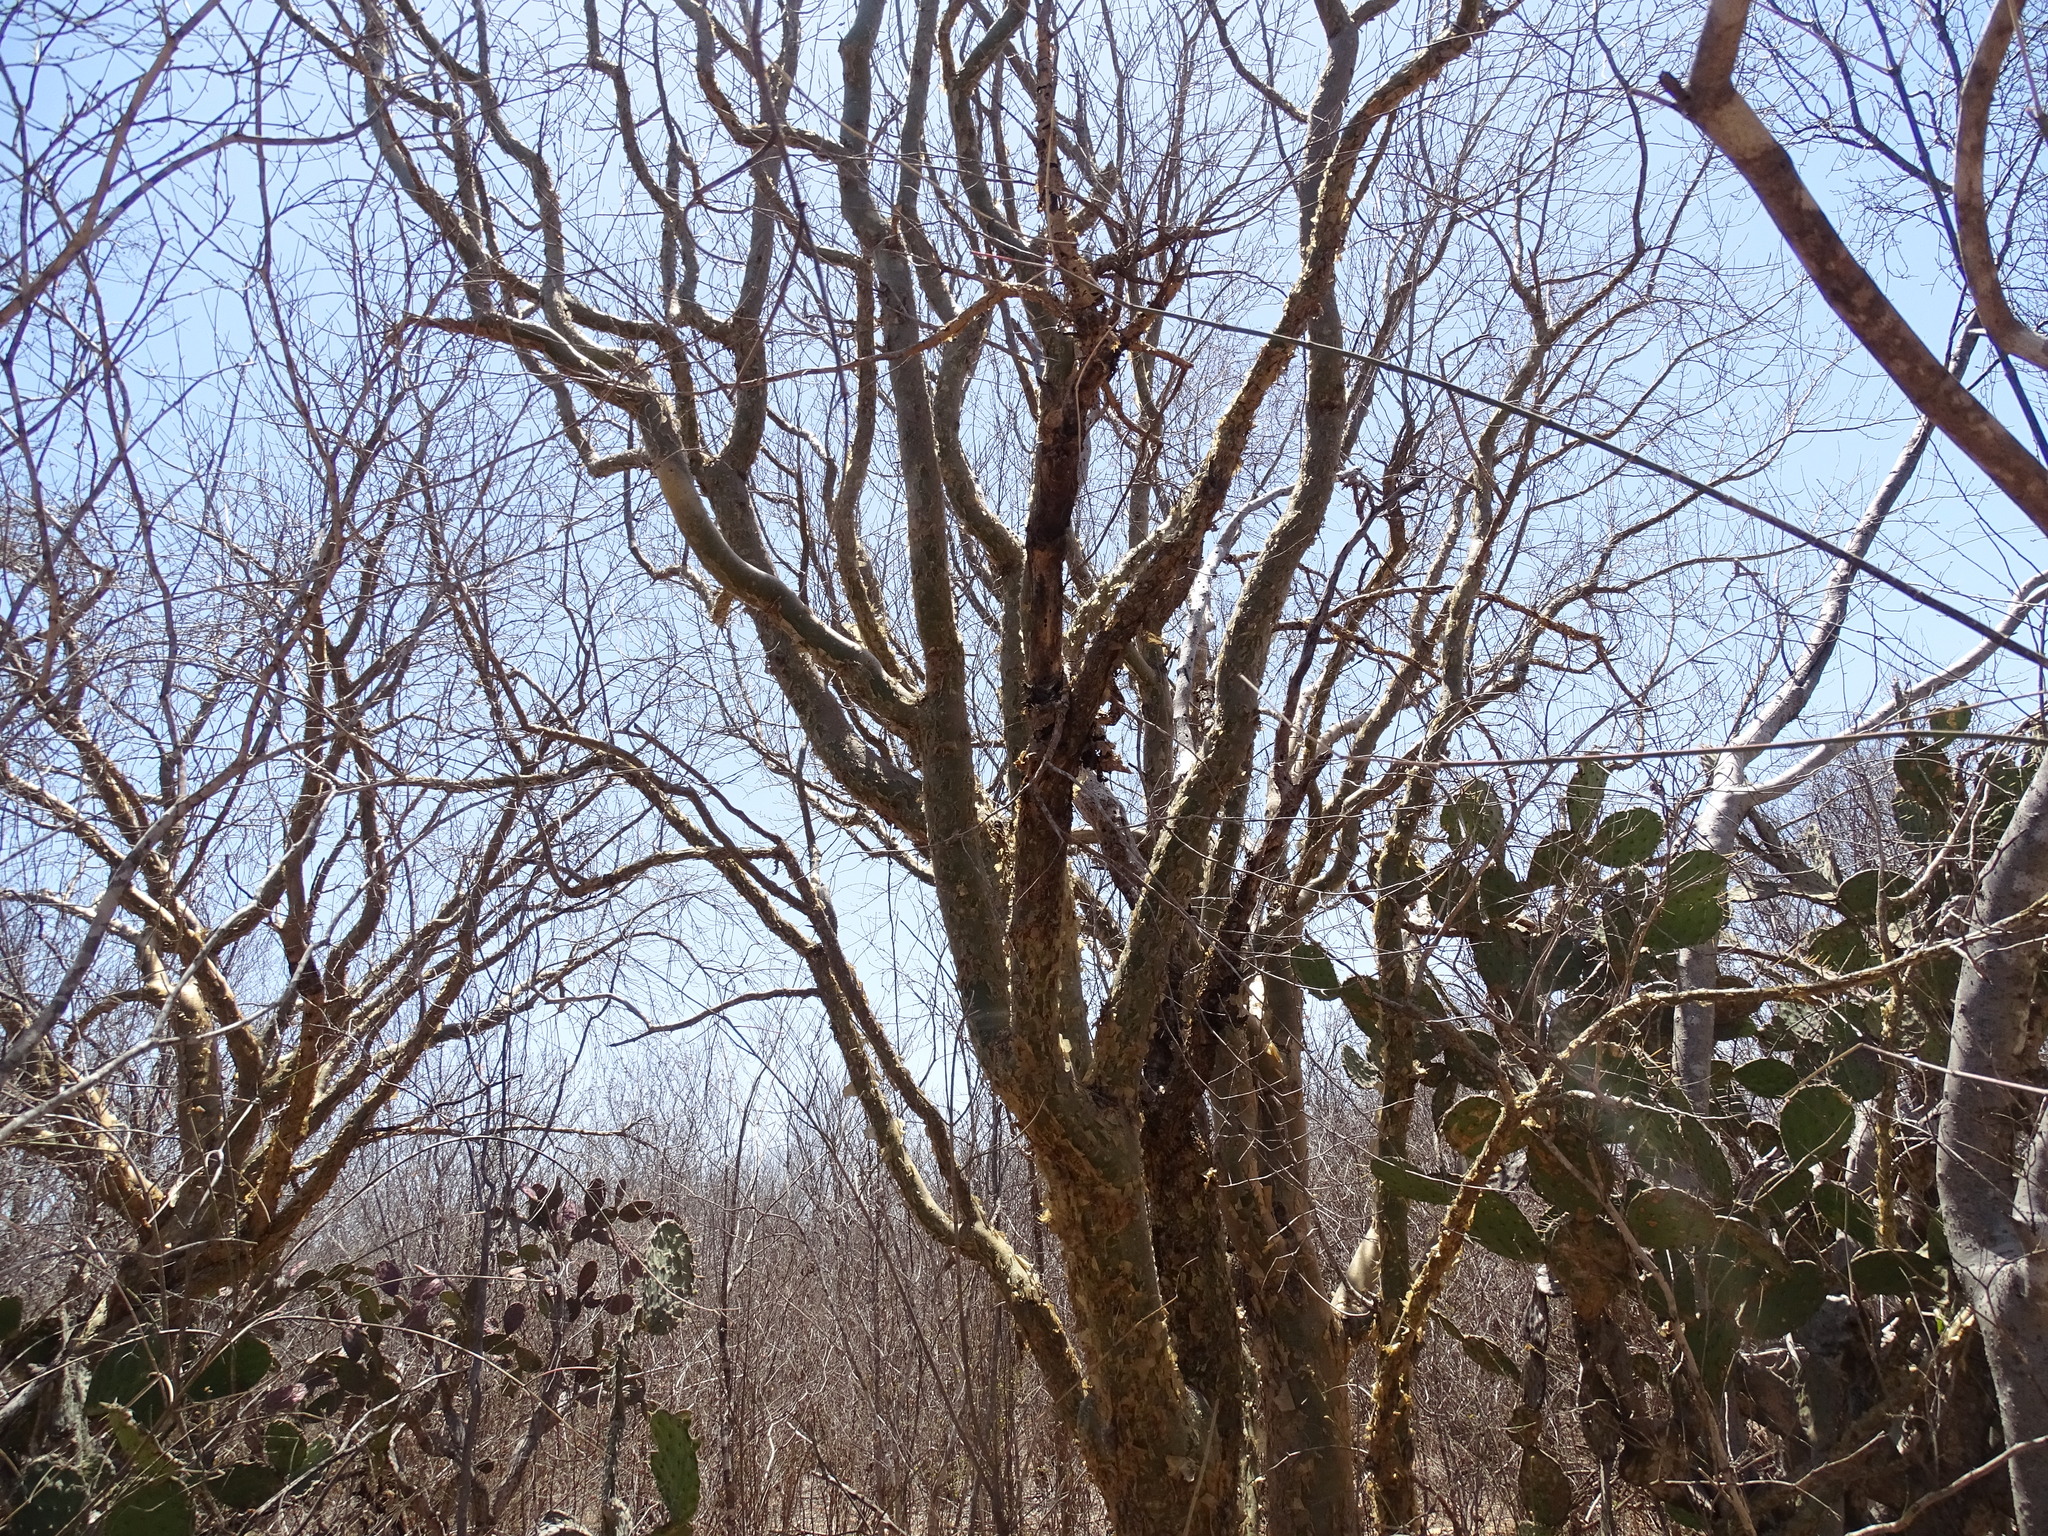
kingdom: Plantae
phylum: Tracheophyta
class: Magnoliopsida
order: Sapindales
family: Burseraceae
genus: Bursera
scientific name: Bursera fagaroides
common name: Elephant tree
